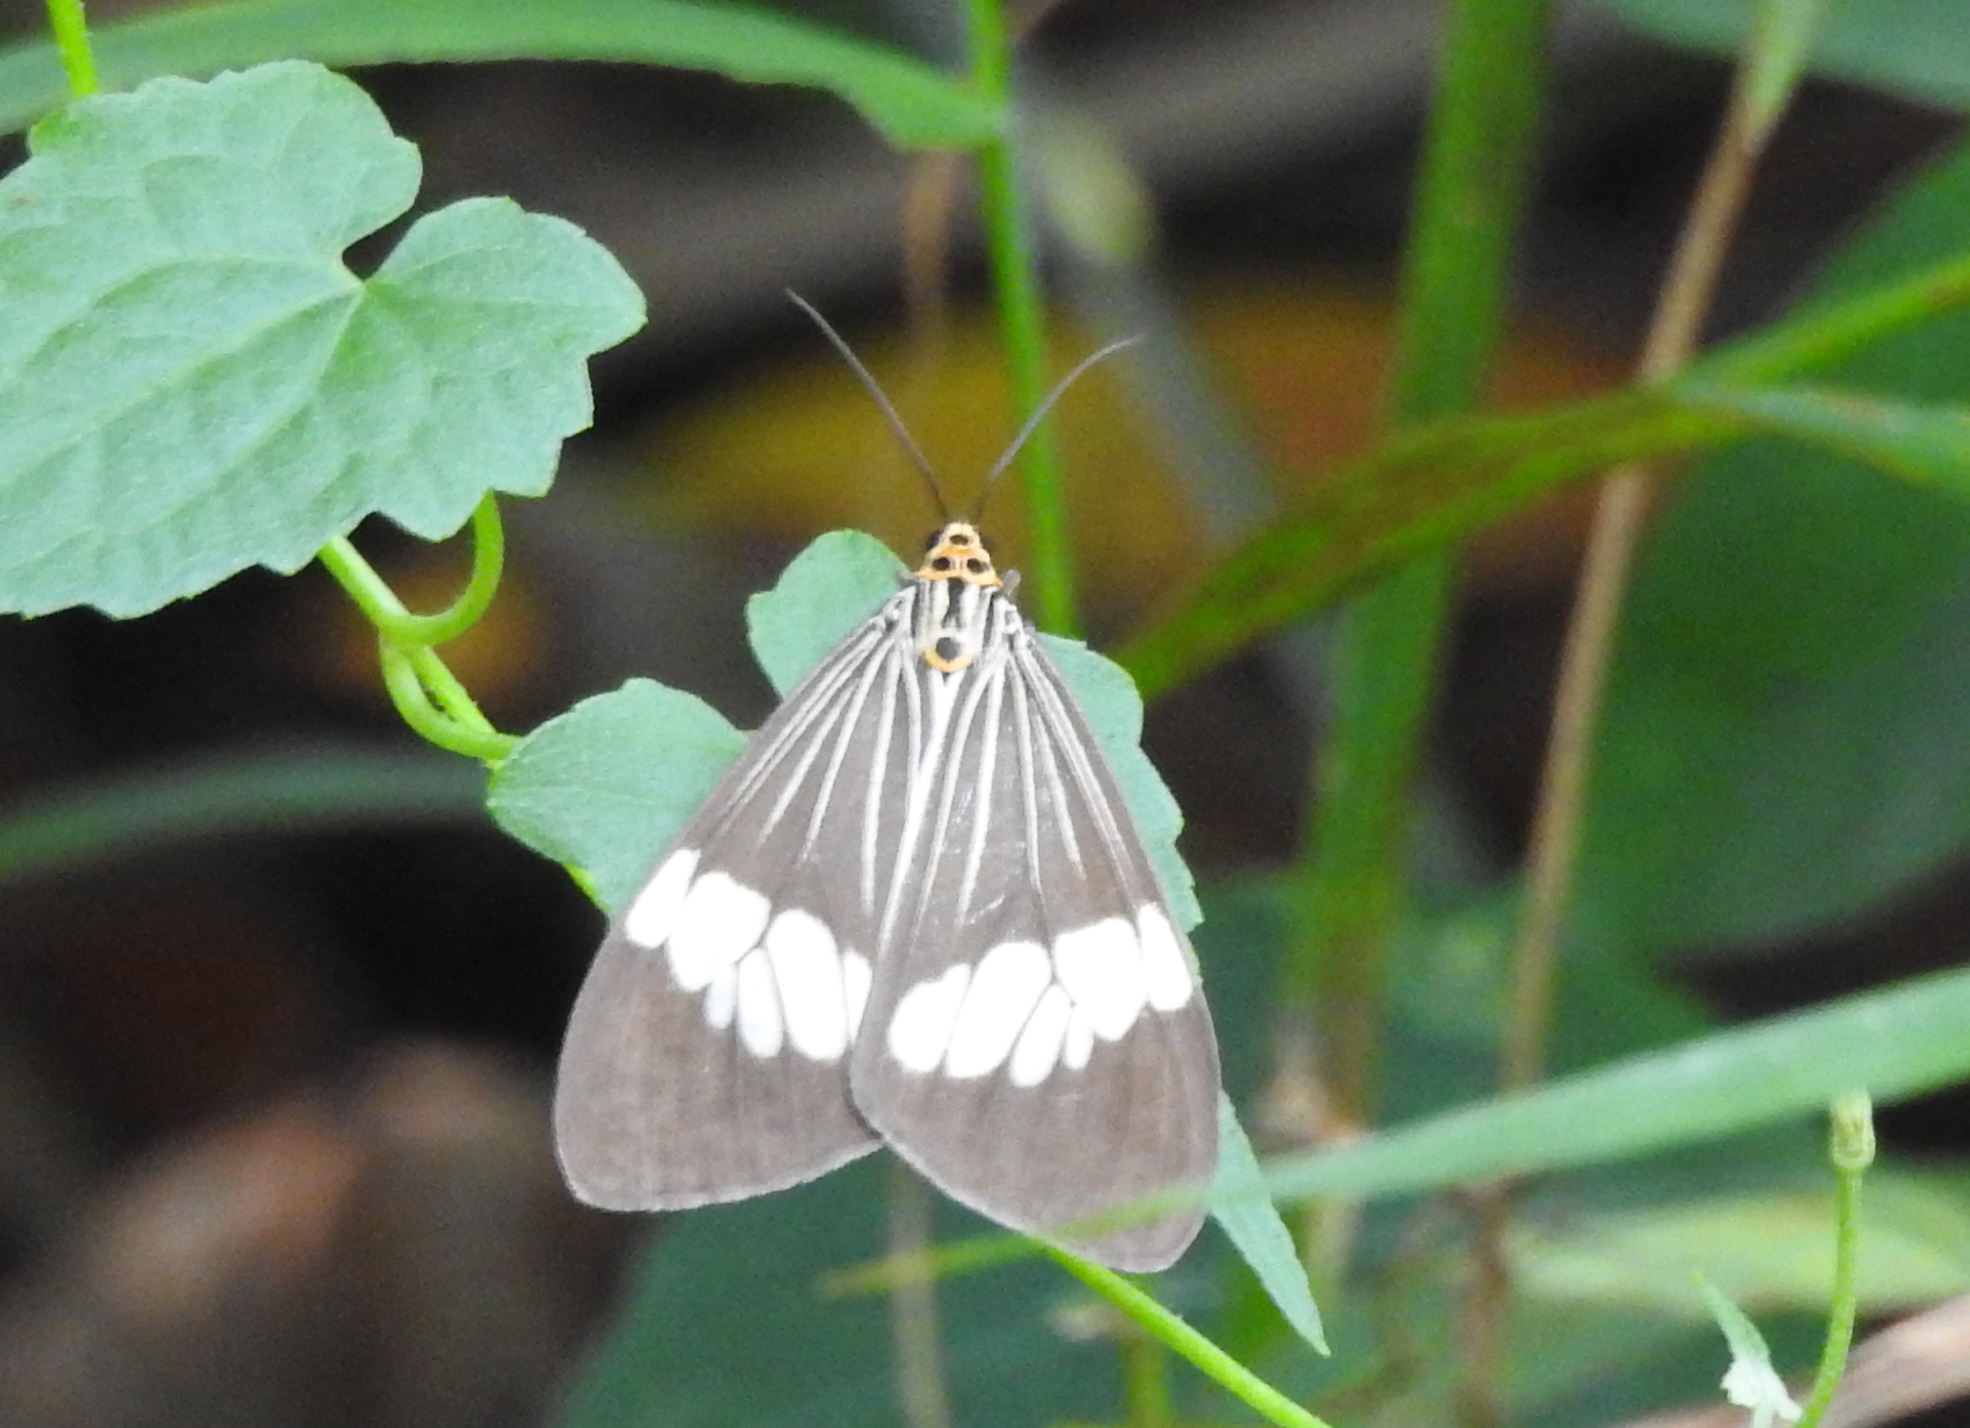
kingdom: Animalia
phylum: Arthropoda
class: Insecta
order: Lepidoptera
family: Erebidae
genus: Nyctemera
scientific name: Nyctemera baulus
